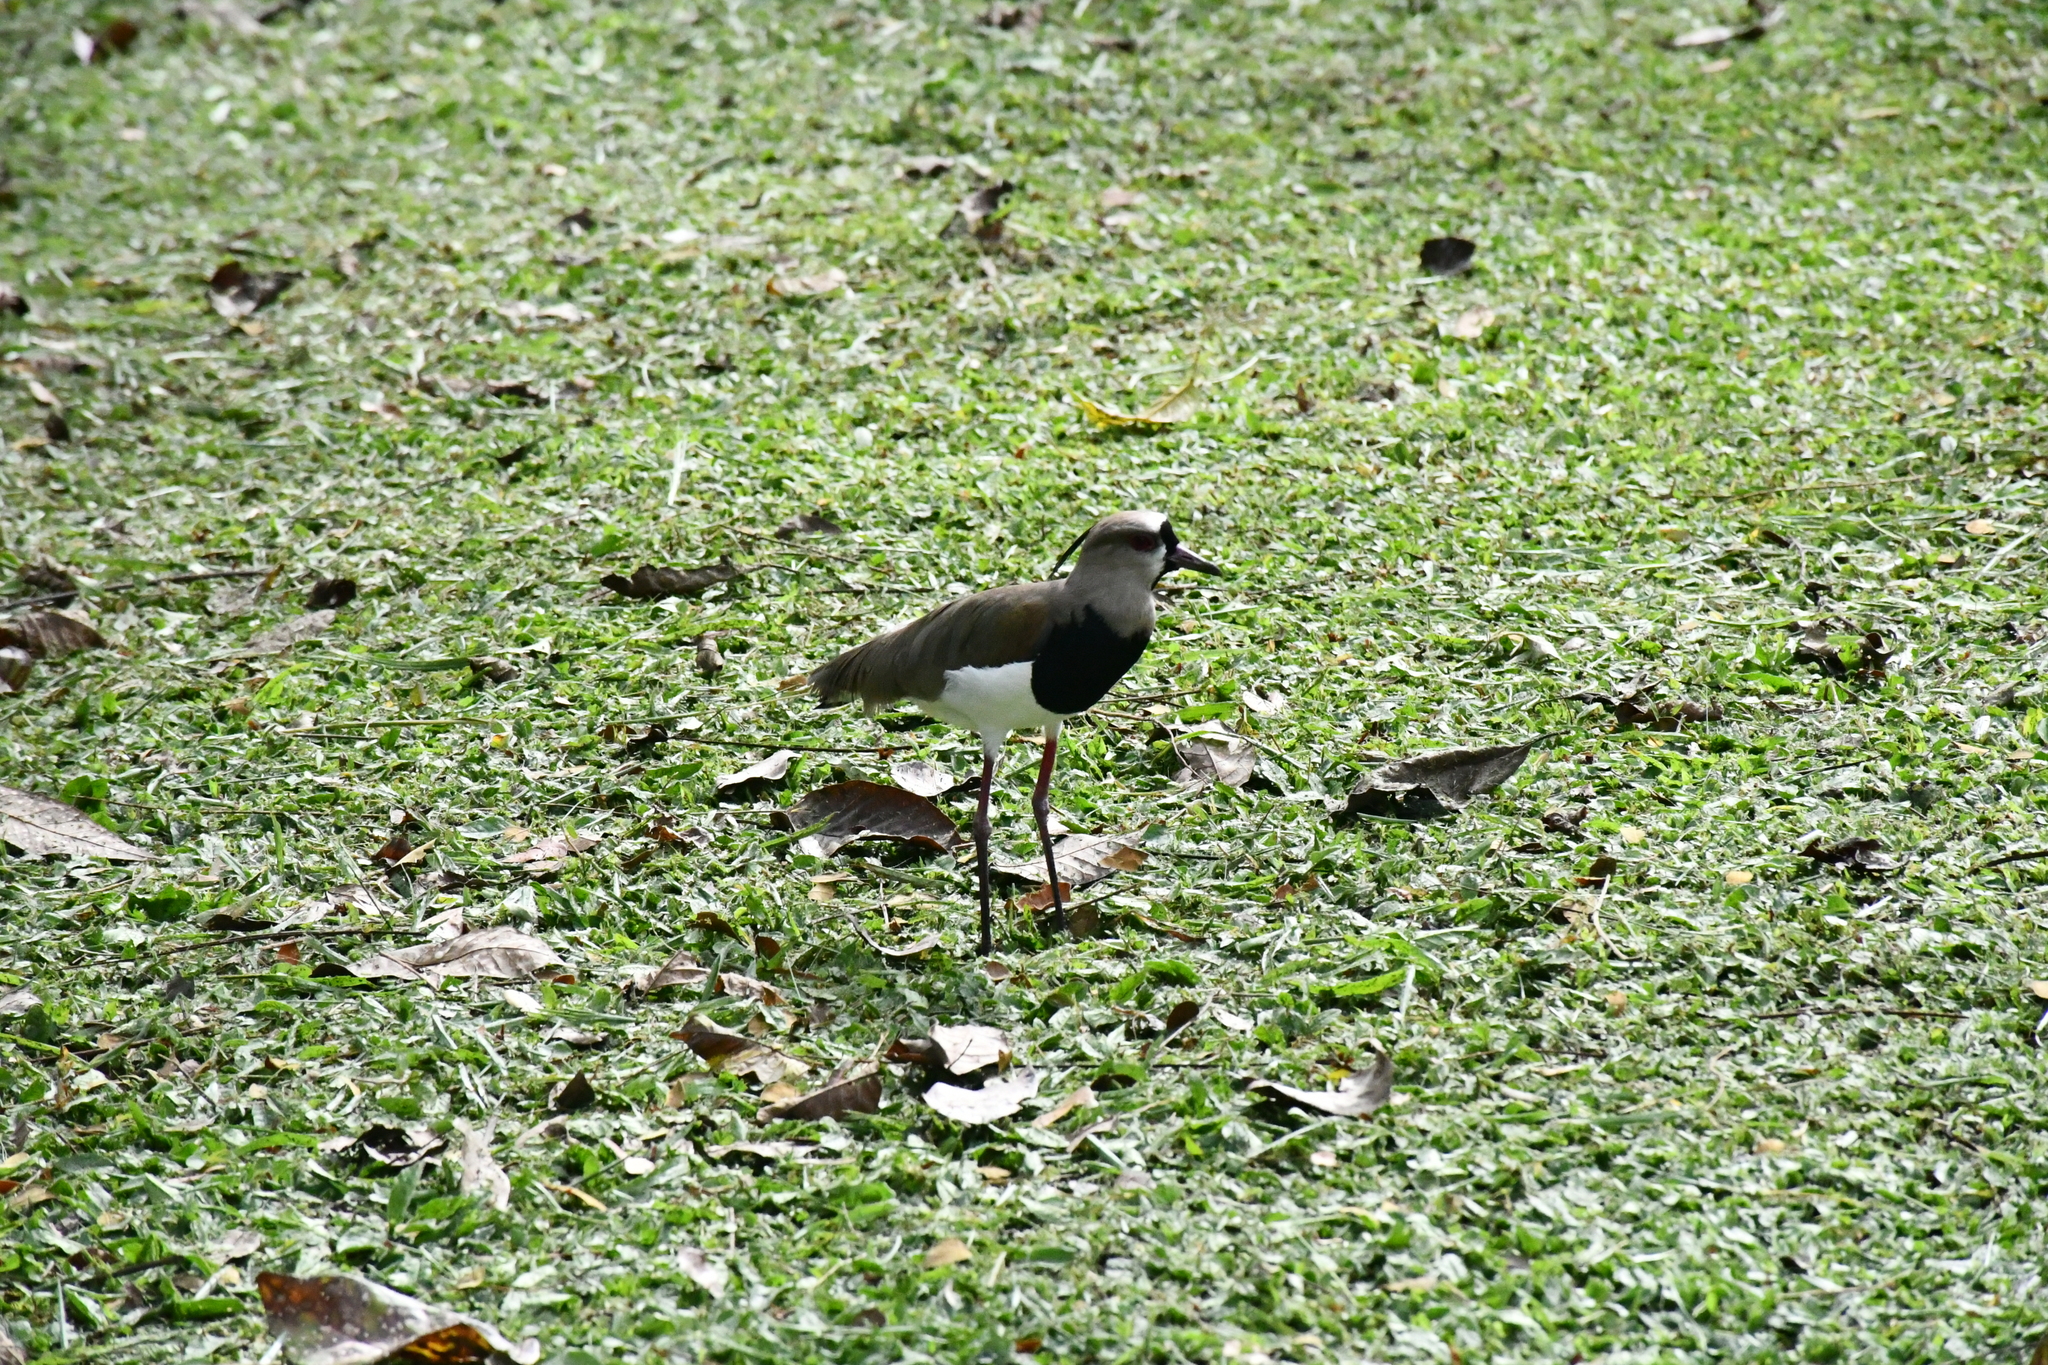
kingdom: Animalia
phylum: Chordata
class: Aves
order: Charadriiformes
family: Charadriidae
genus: Vanellus
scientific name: Vanellus chilensis
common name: Southern lapwing
